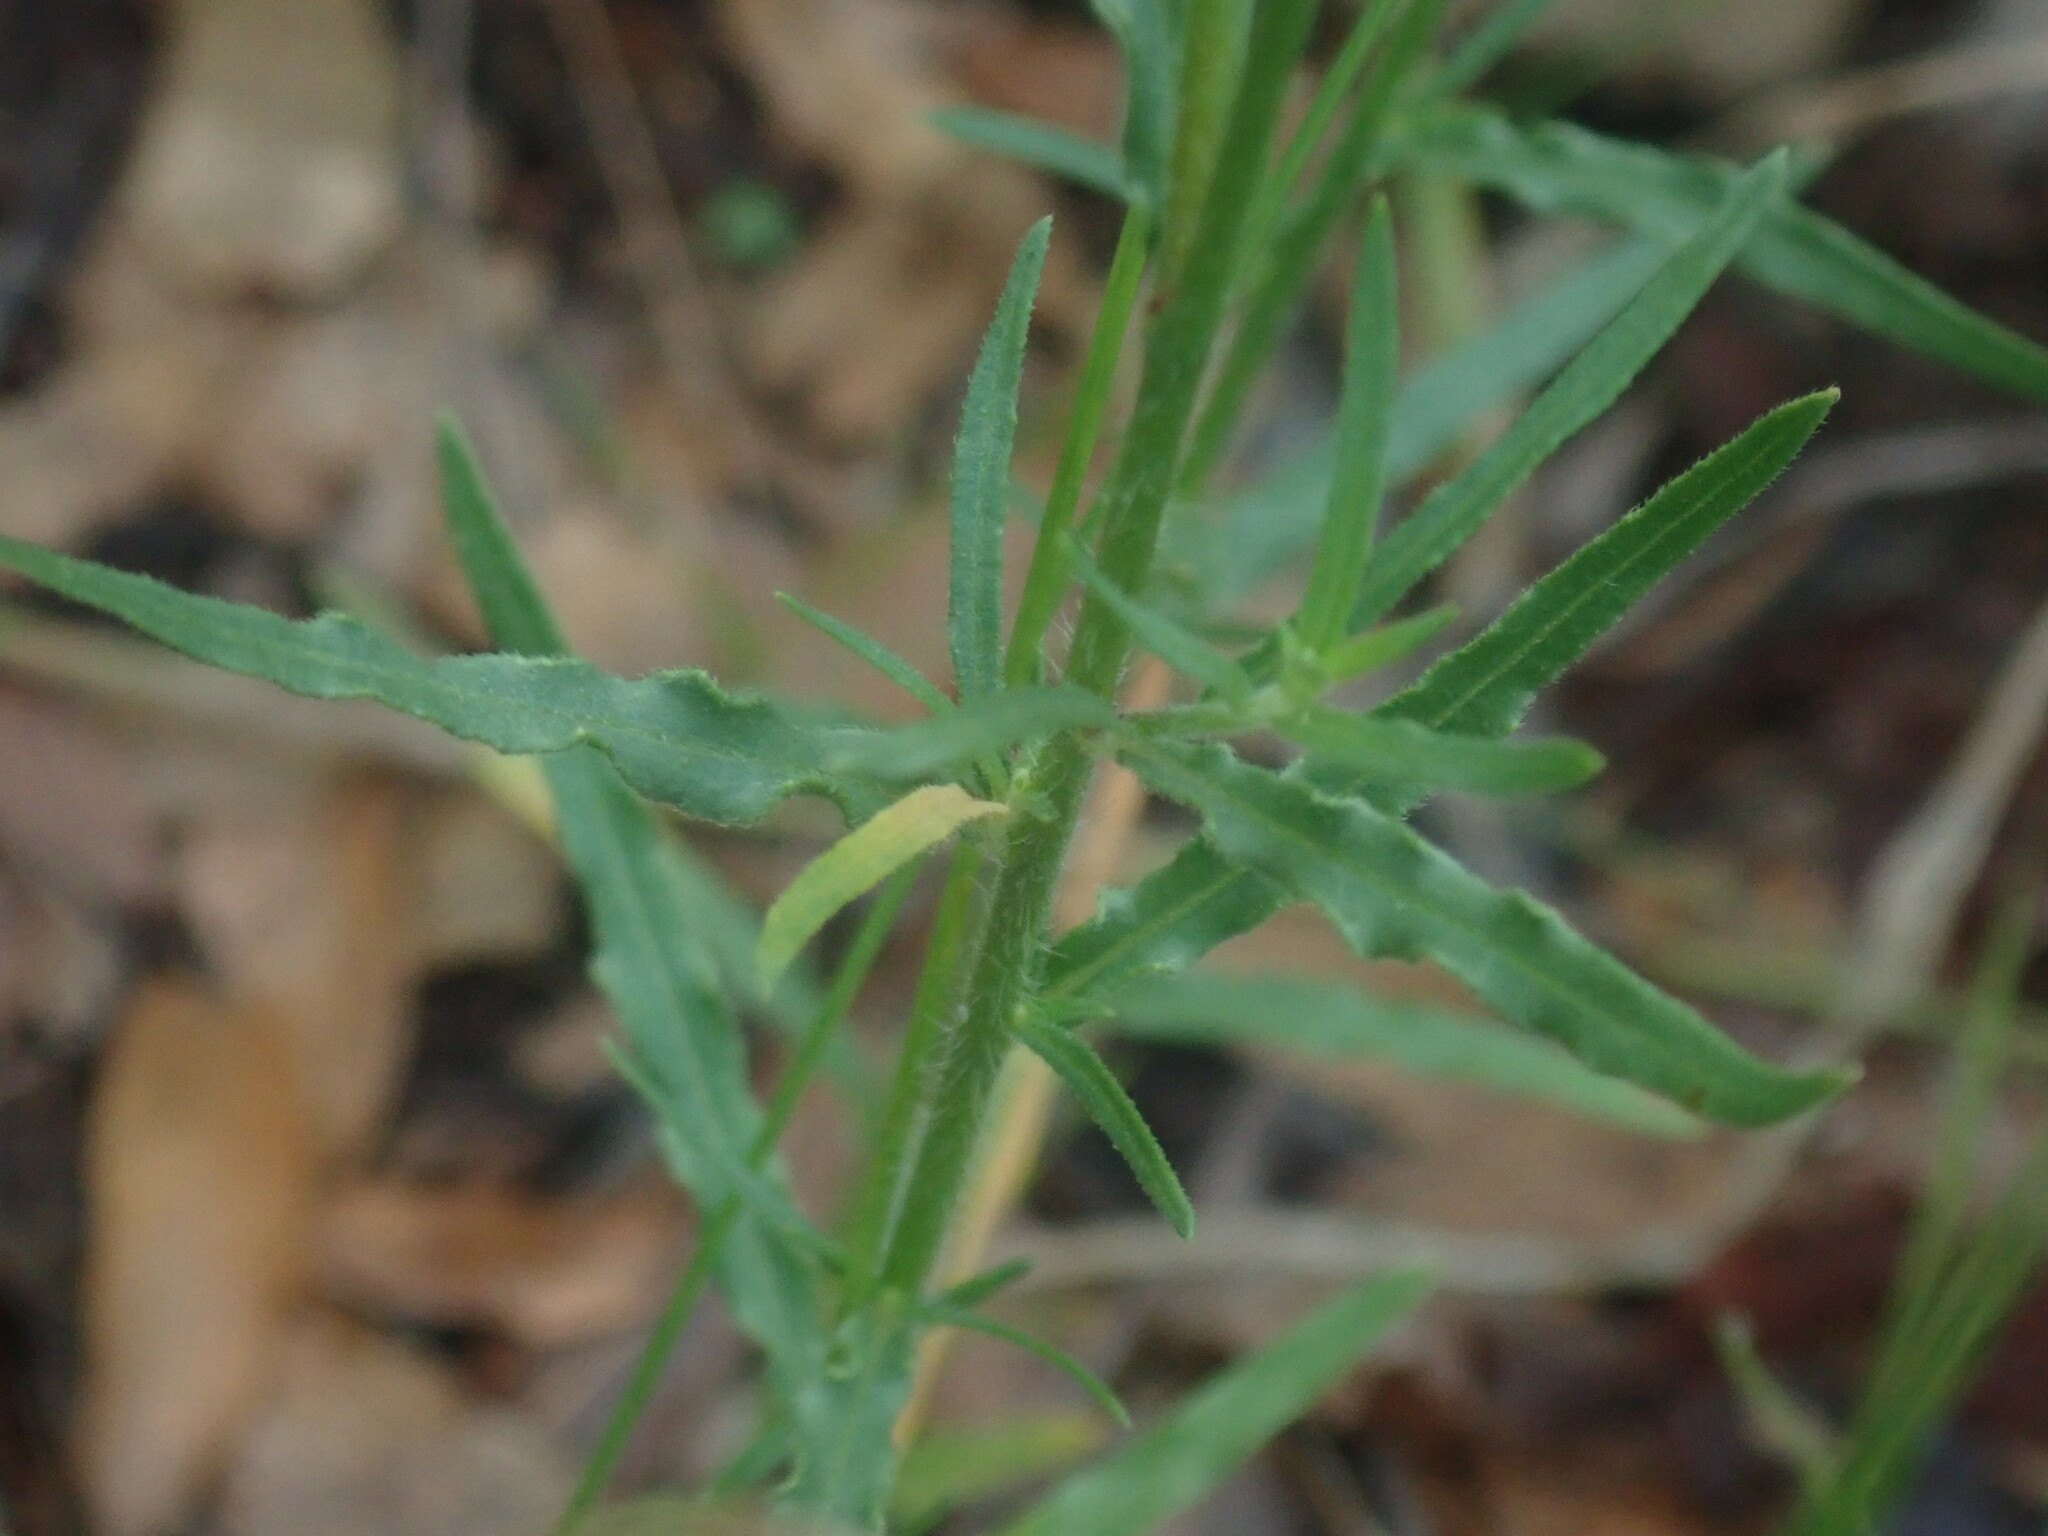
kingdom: Plantae
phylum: Tracheophyta
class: Magnoliopsida
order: Myrtales
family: Onagraceae
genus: Oenothera
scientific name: Oenothera podocarpa
